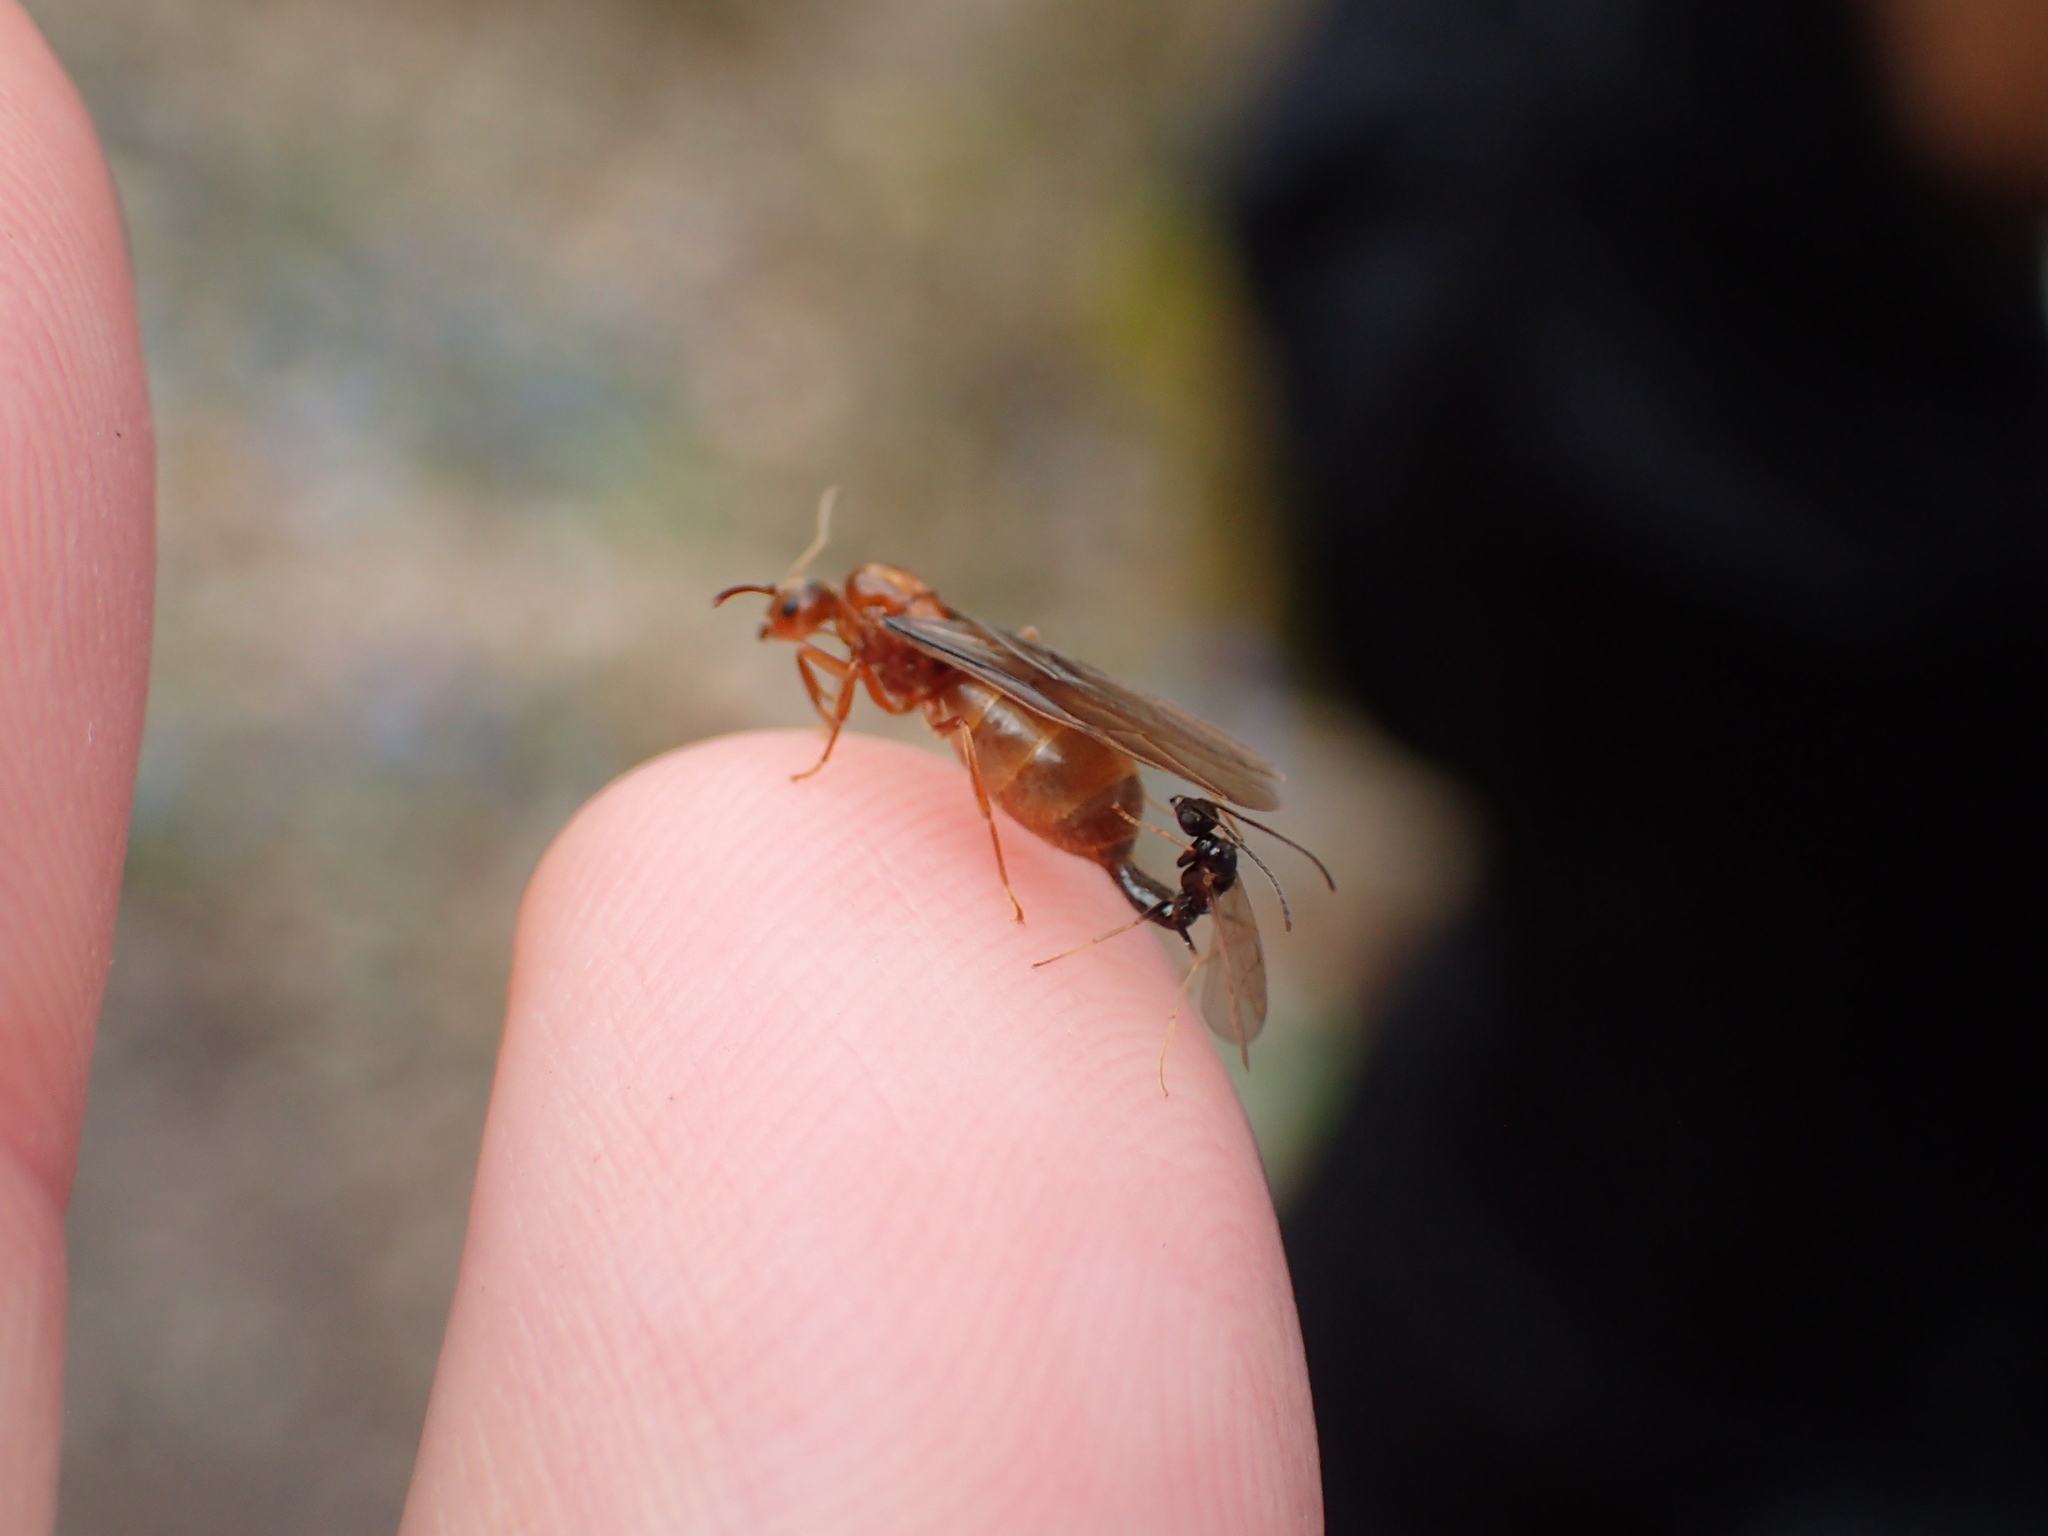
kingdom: Animalia
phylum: Arthropoda
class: Insecta
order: Hymenoptera
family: Formicidae
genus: Prenolepis
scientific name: Prenolepis imparis
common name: Small honey ant
